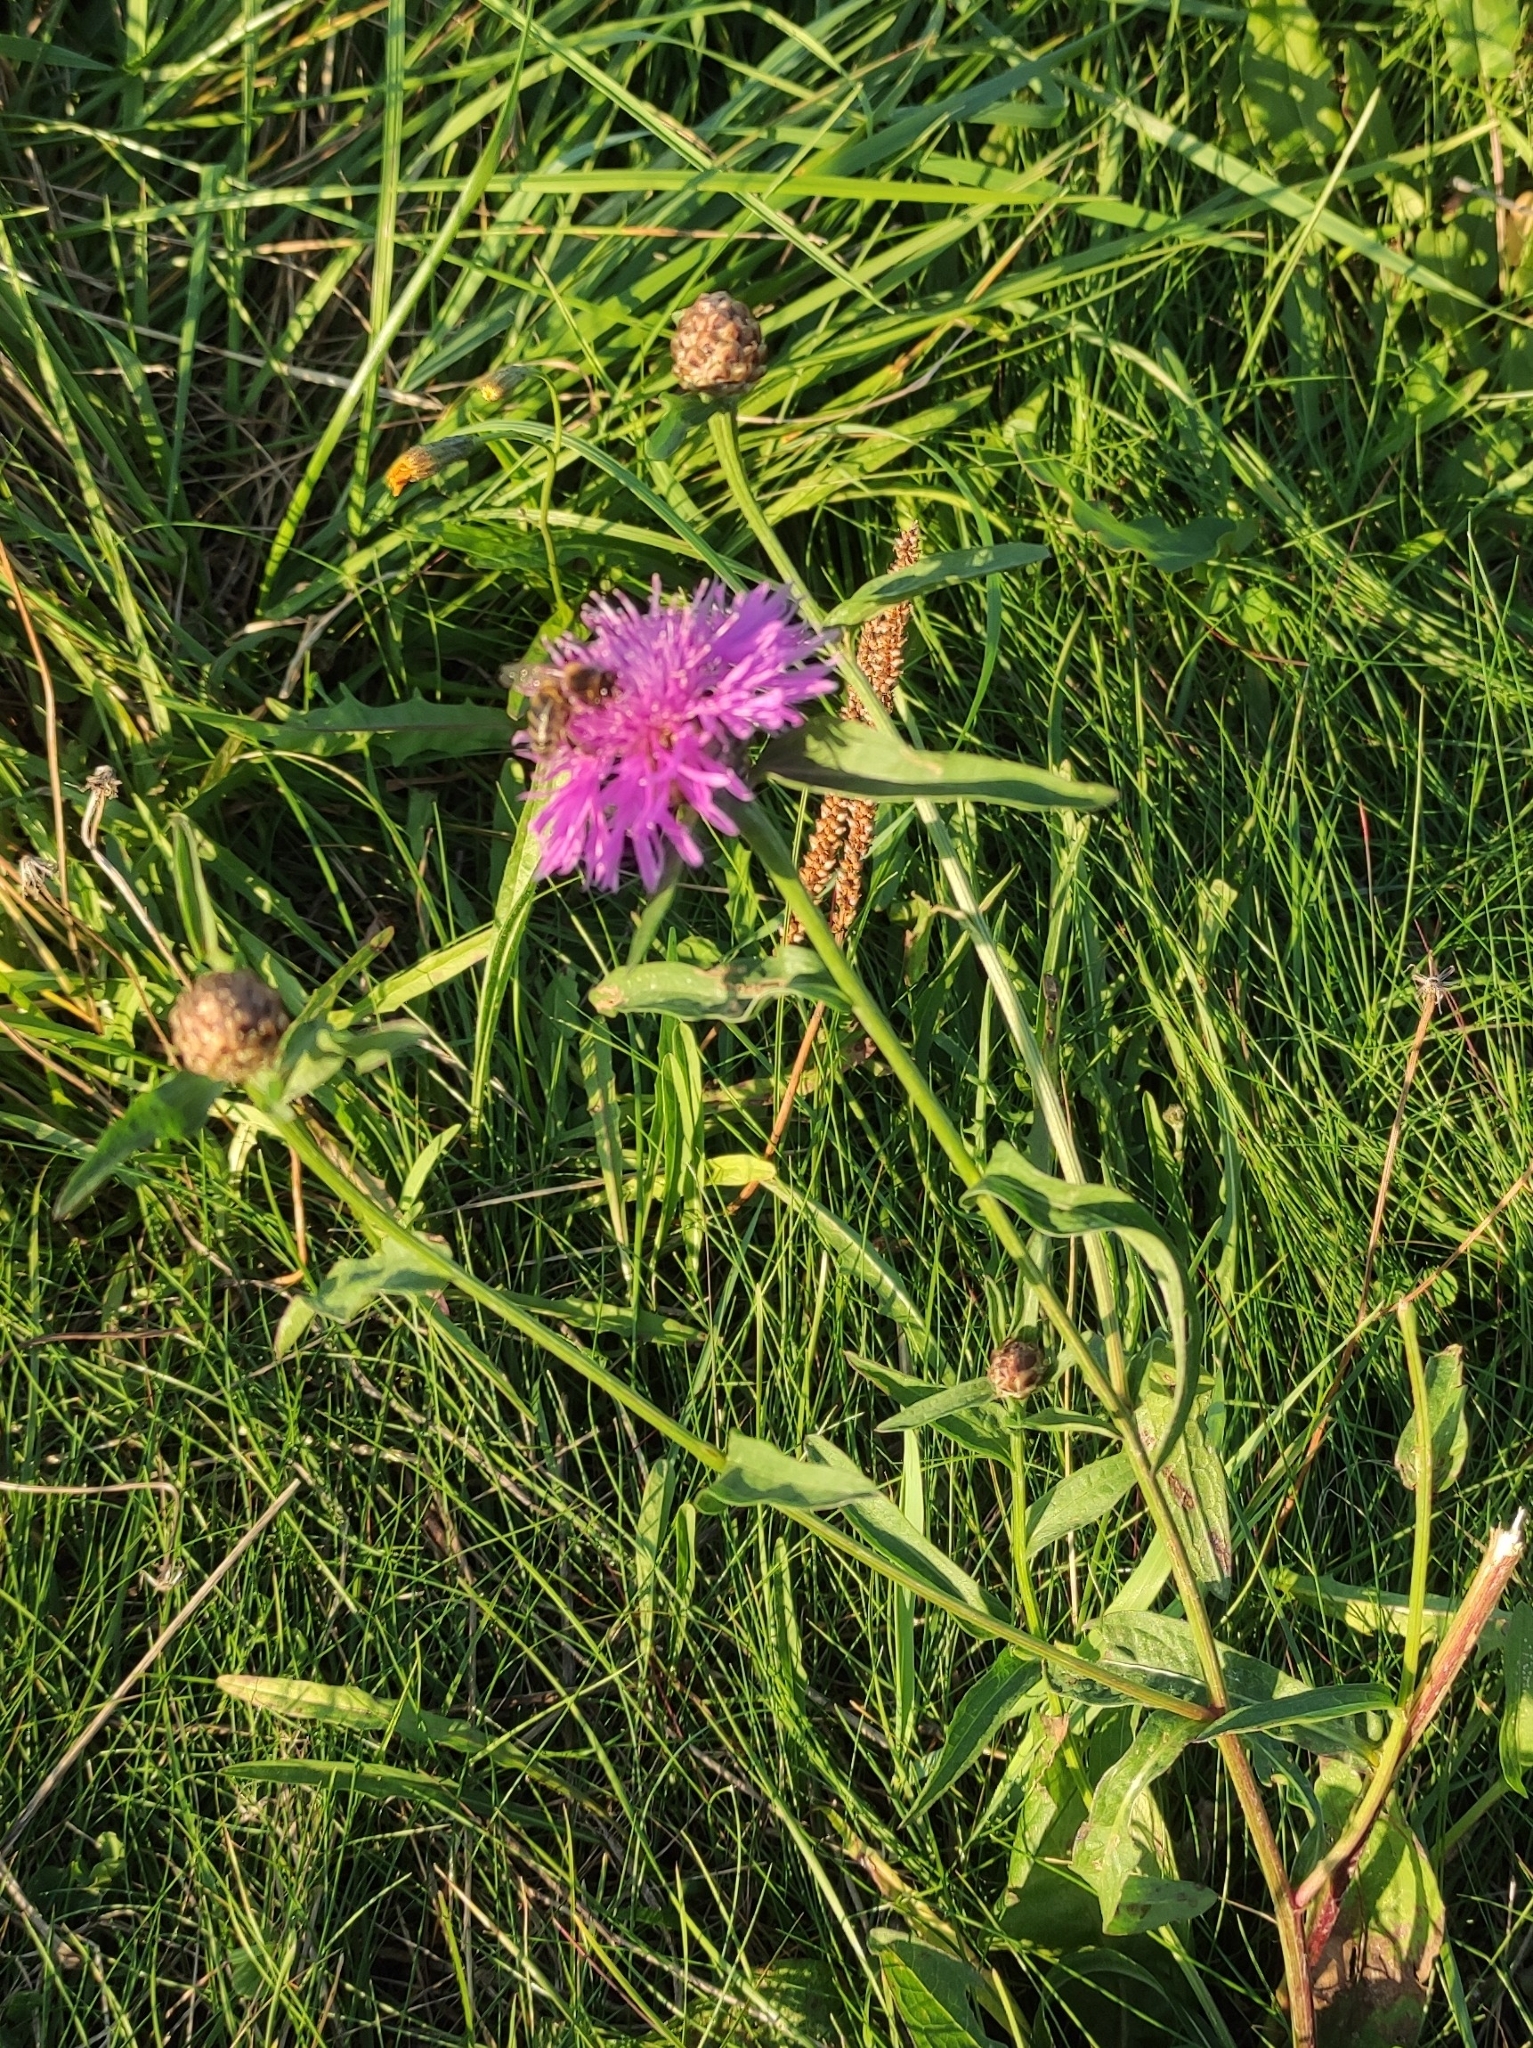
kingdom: Plantae
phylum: Tracheophyta
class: Magnoliopsida
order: Asterales
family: Asteraceae
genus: Centaurea
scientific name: Centaurea jacea
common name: Brown knapweed
